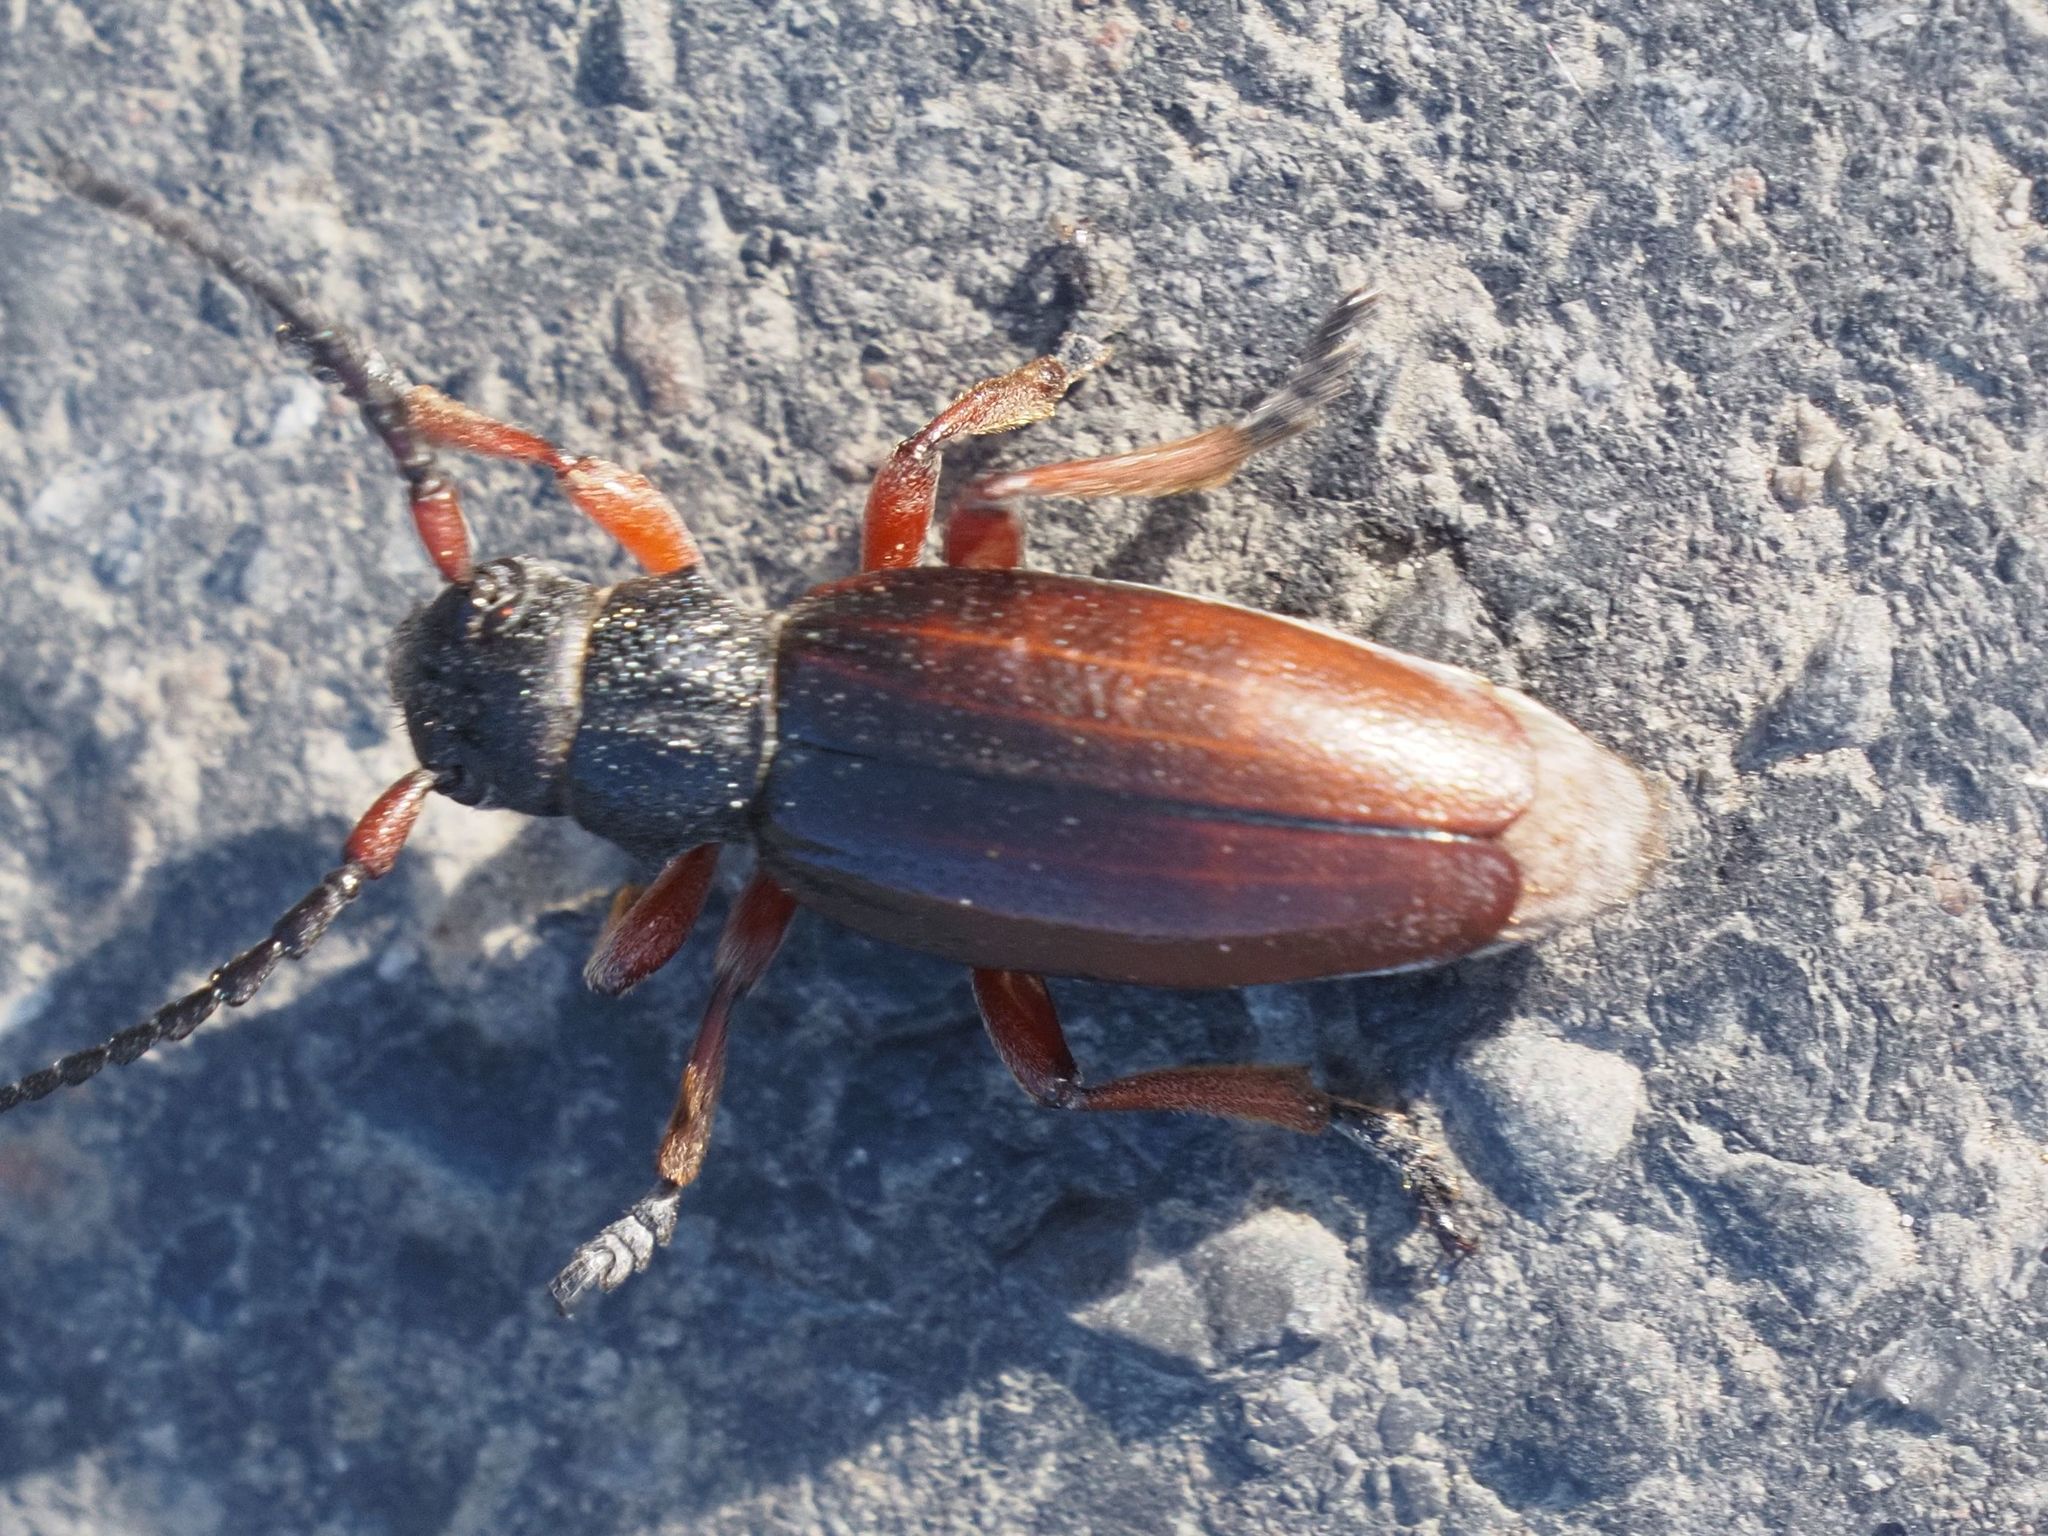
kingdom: Animalia
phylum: Arthropoda
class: Insecta
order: Coleoptera
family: Cerambycidae
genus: Dorcadion
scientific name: Dorcadion fulvum
